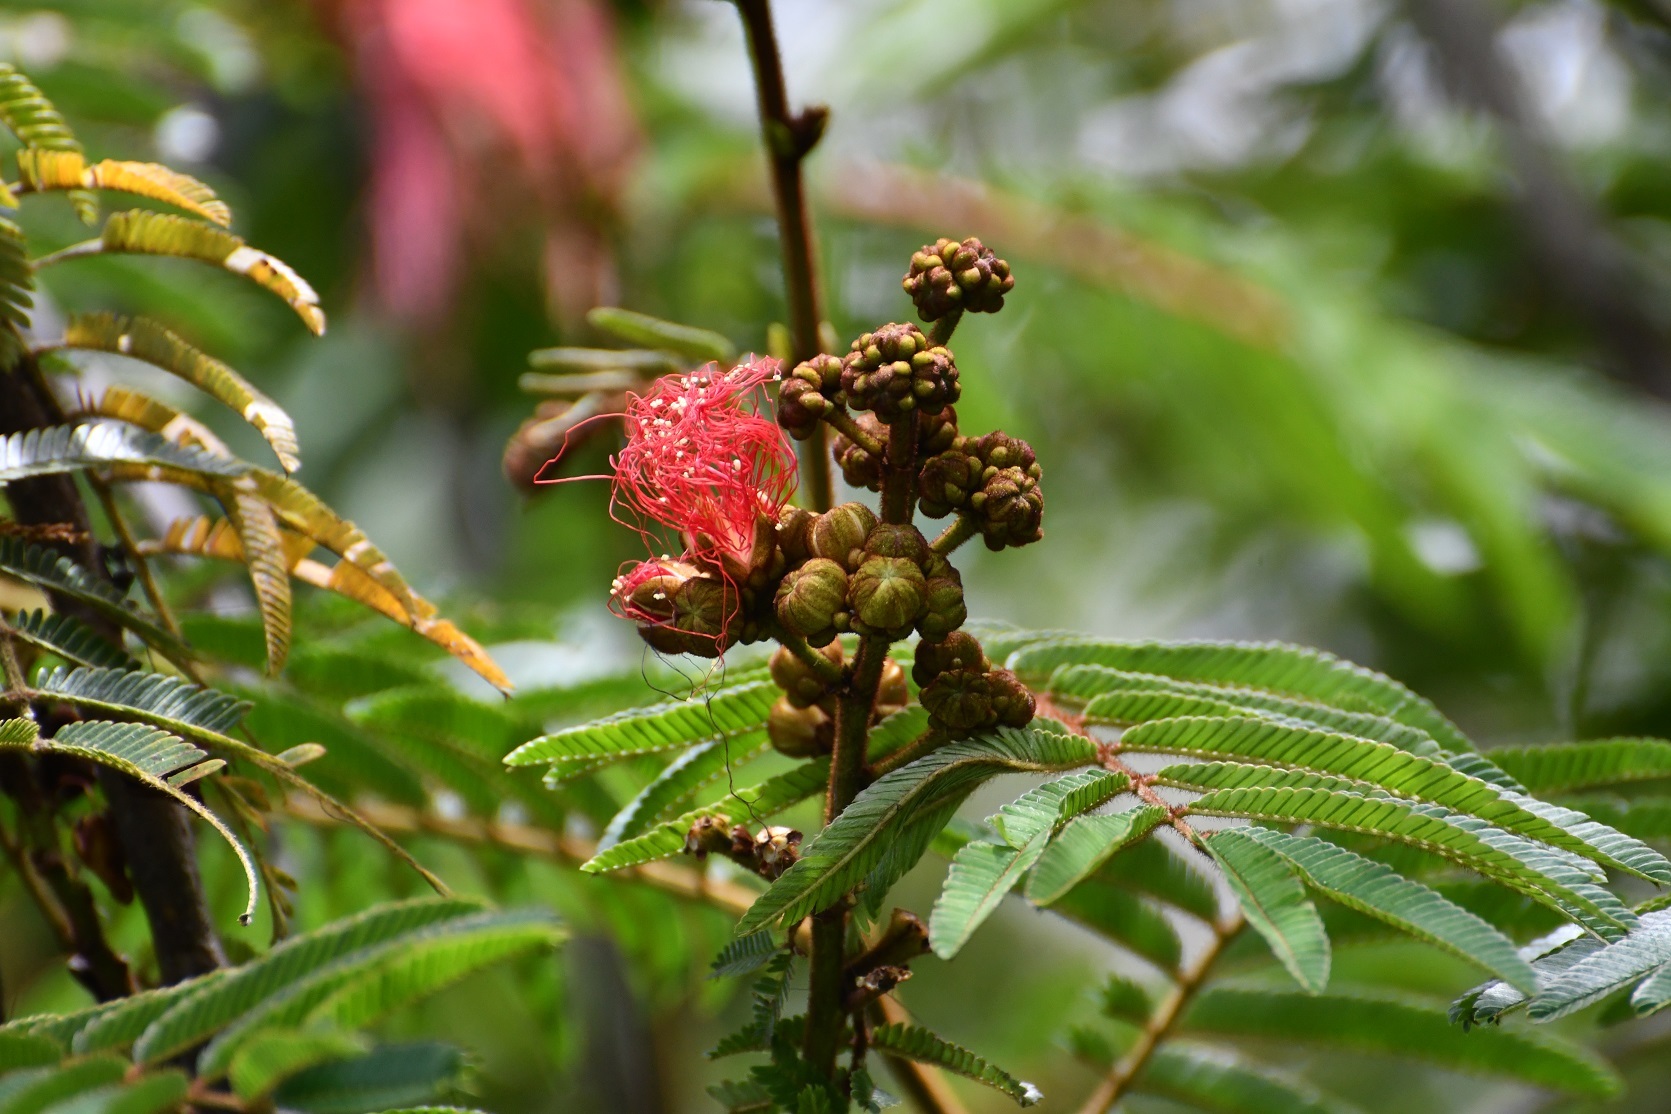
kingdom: Plantae
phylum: Tracheophyta
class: Magnoliopsida
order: Fabales
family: Fabaceae
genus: Calliandra
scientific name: Calliandra houstoniana
